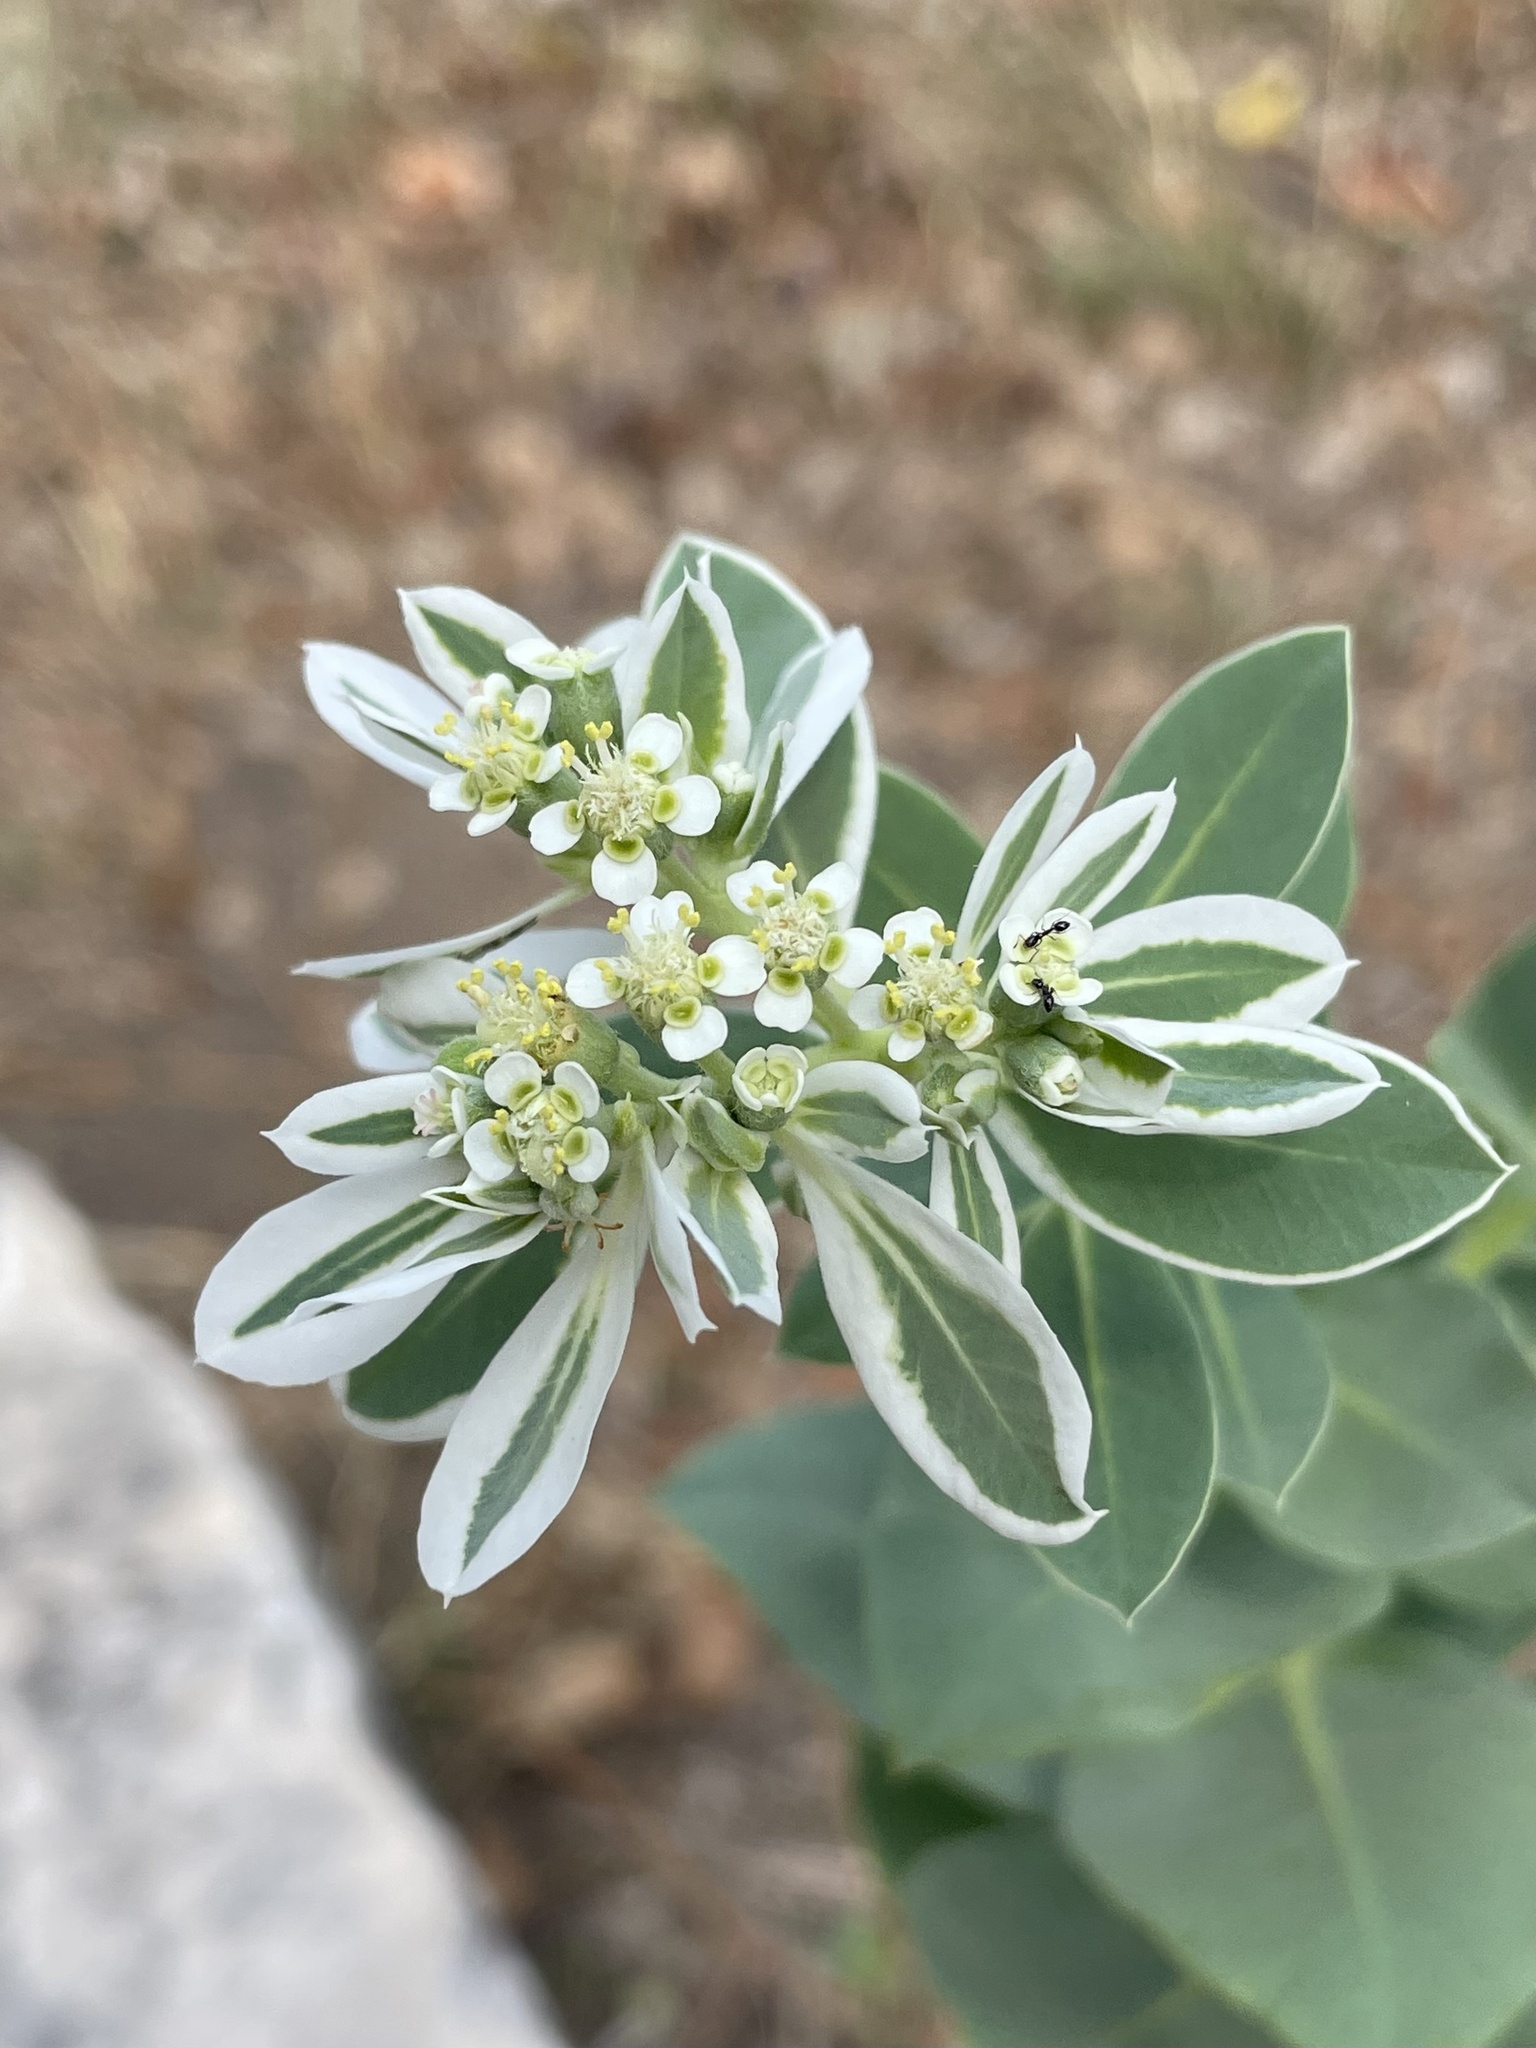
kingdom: Plantae
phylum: Tracheophyta
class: Magnoliopsida
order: Malpighiales
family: Euphorbiaceae
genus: Euphorbia
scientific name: Euphorbia marginata
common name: Ghostweed
